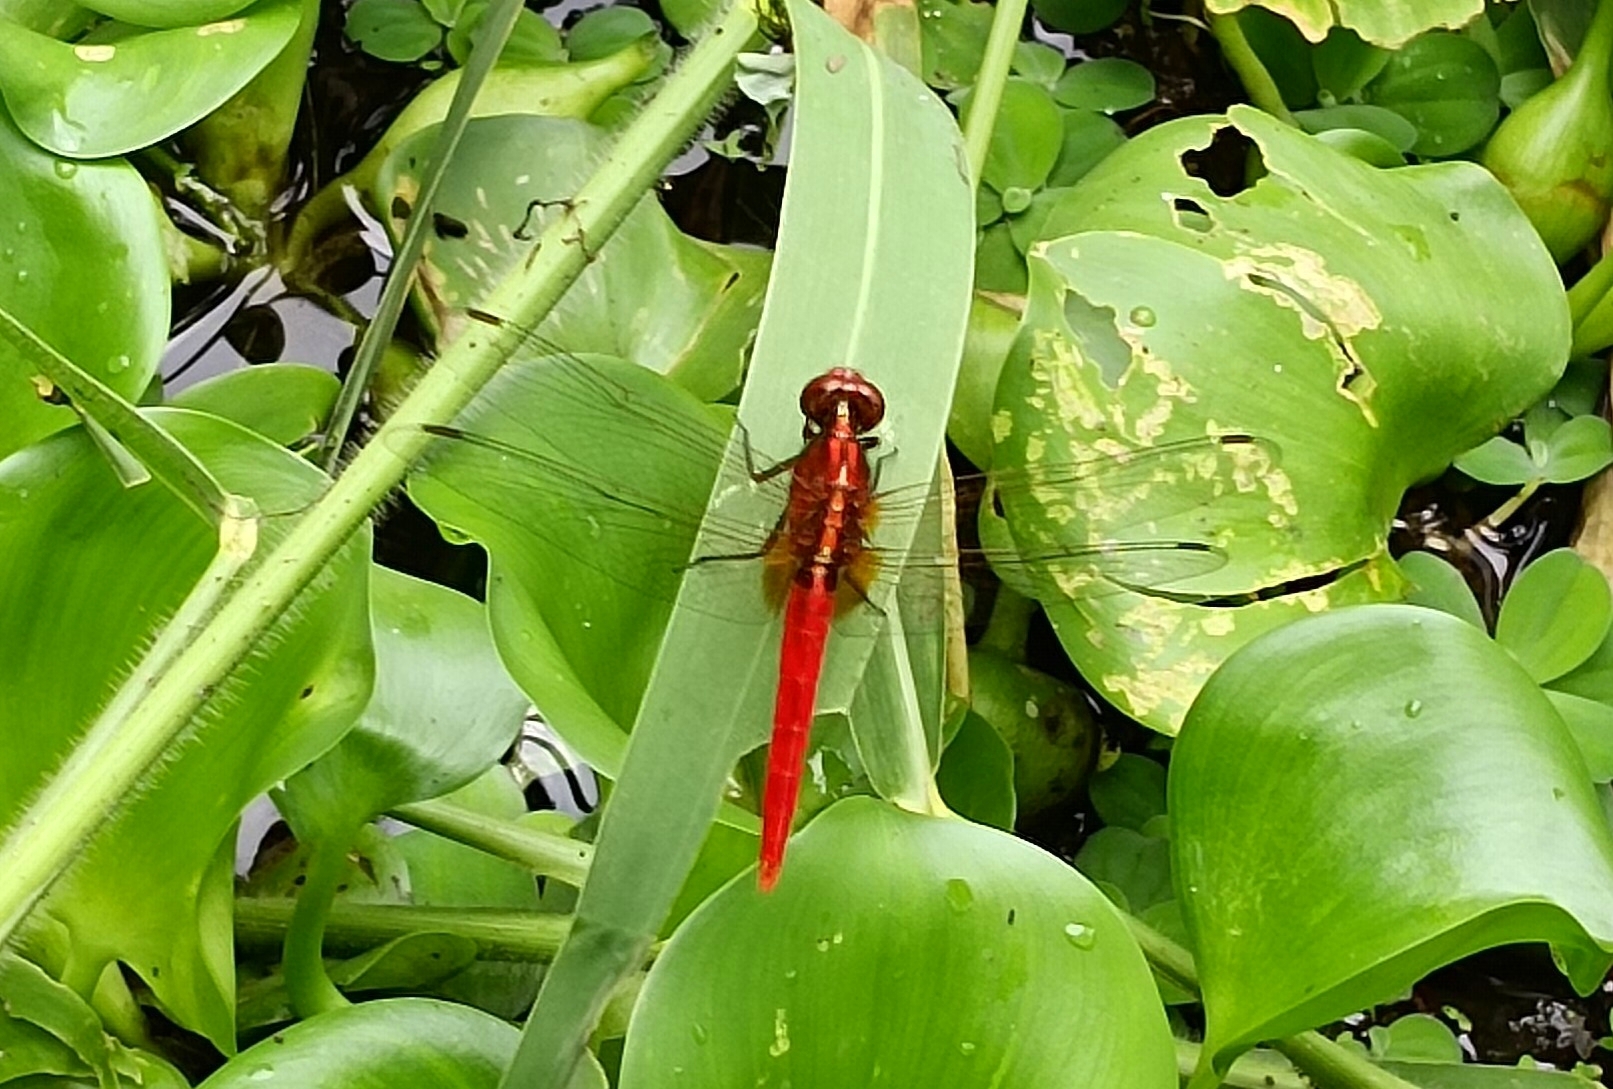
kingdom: Animalia
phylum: Arthropoda
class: Insecta
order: Odonata
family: Libellulidae
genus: Rhodothemis
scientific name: Rhodothemis rufa
